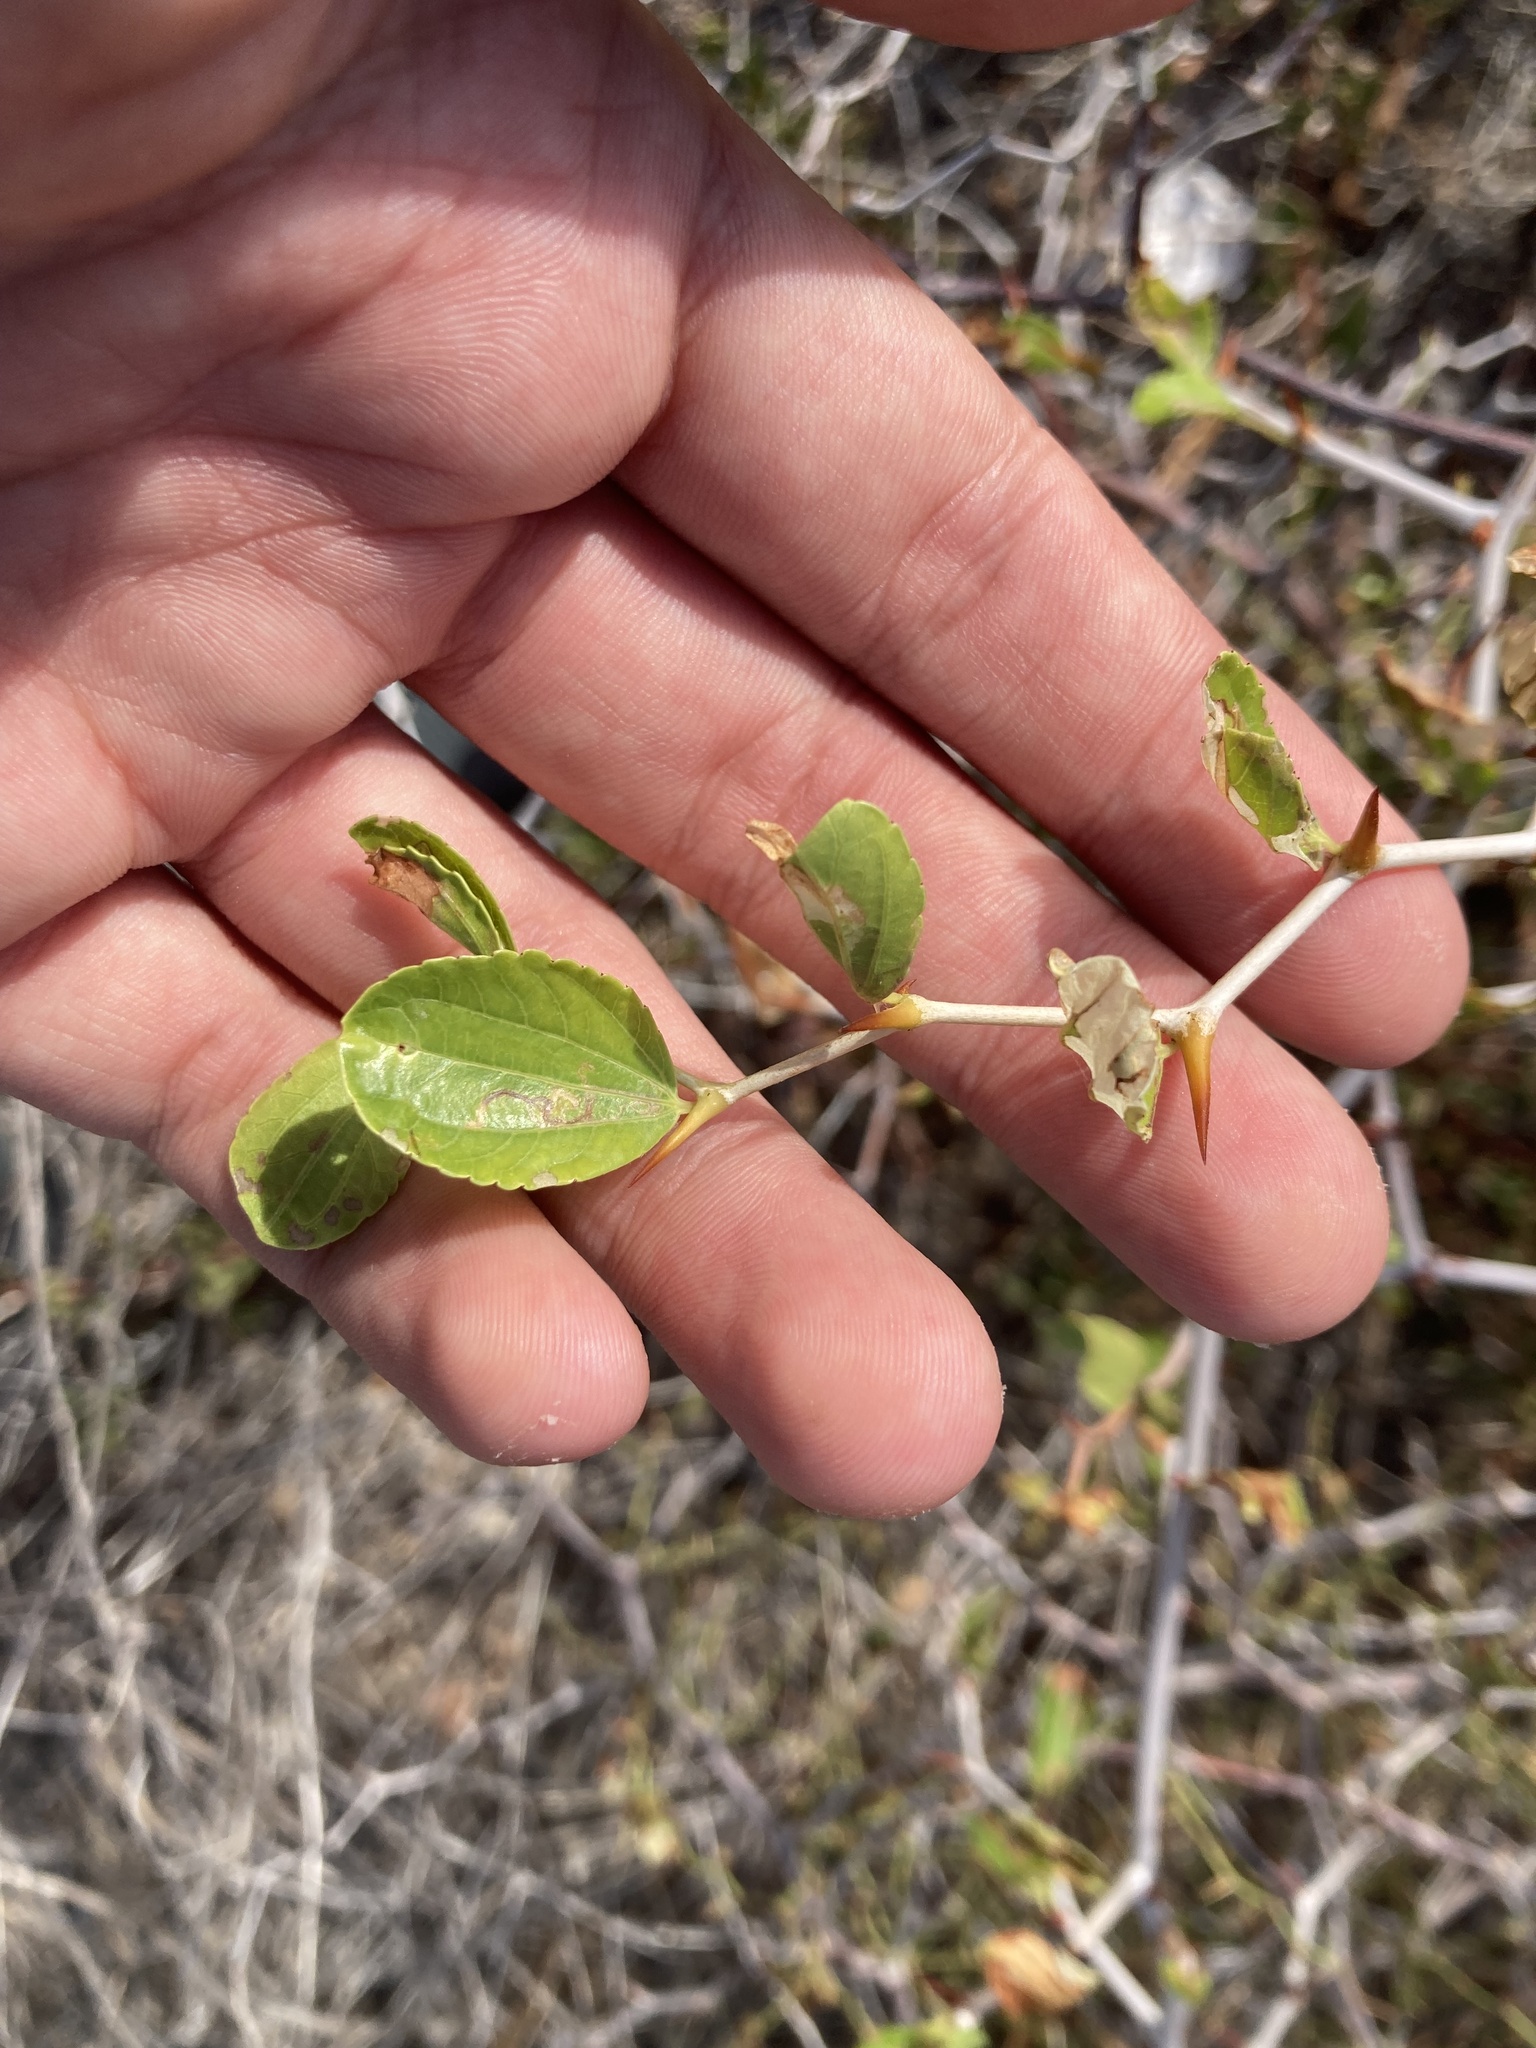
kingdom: Plantae
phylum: Tracheophyta
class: Magnoliopsida
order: Rosales
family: Rhamnaceae
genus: Ziziphus
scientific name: Ziziphus lotus
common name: Lotus
